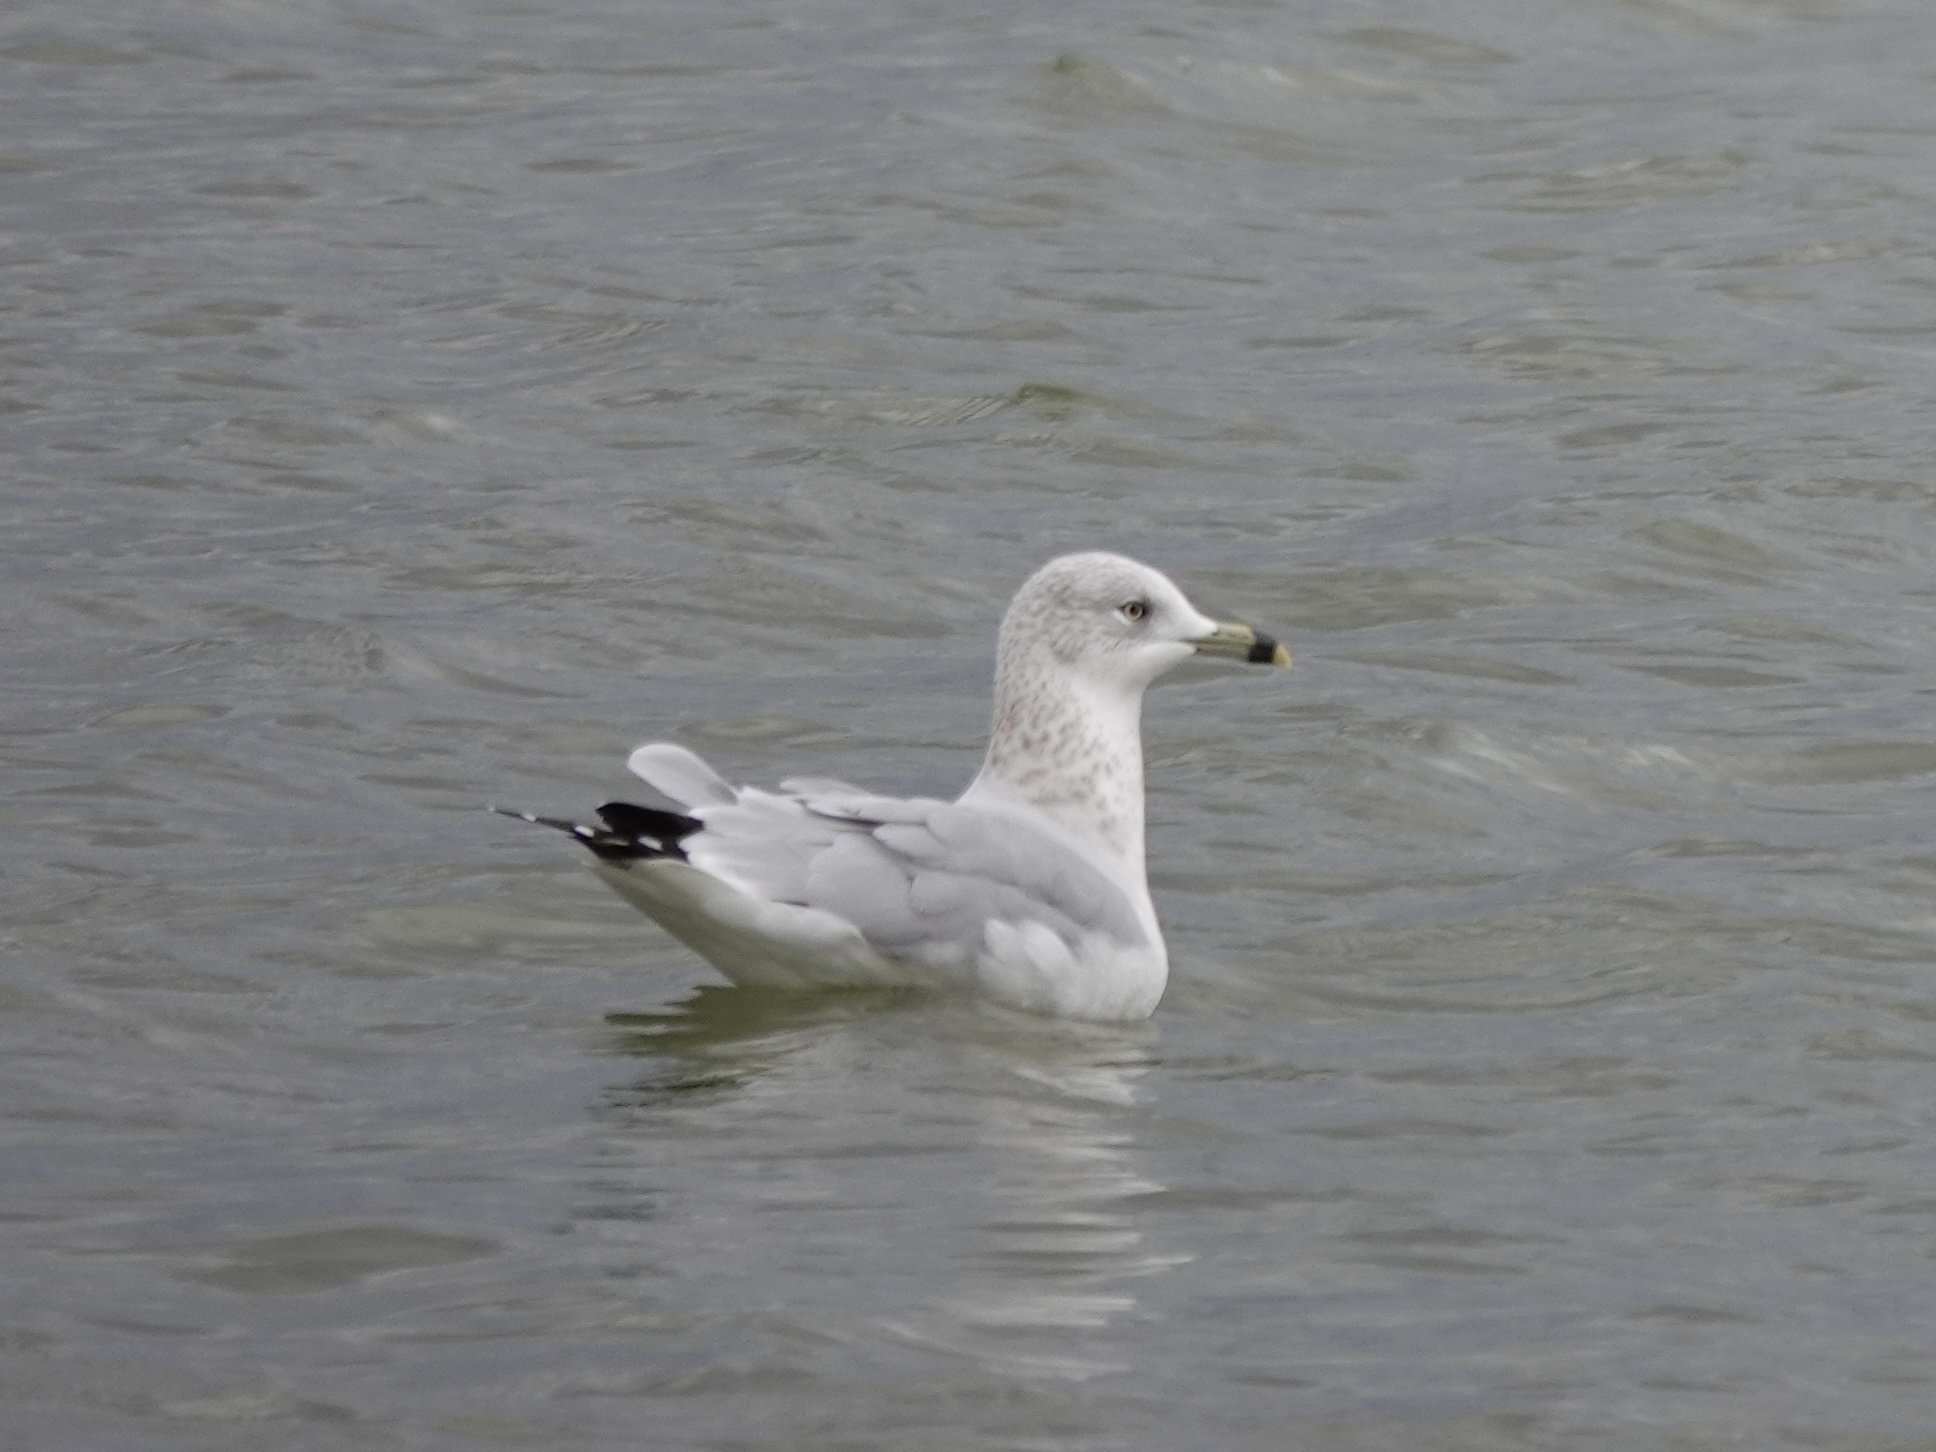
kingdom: Animalia
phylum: Chordata
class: Aves
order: Charadriiformes
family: Laridae
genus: Larus
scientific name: Larus delawarensis
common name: Ring-billed gull
